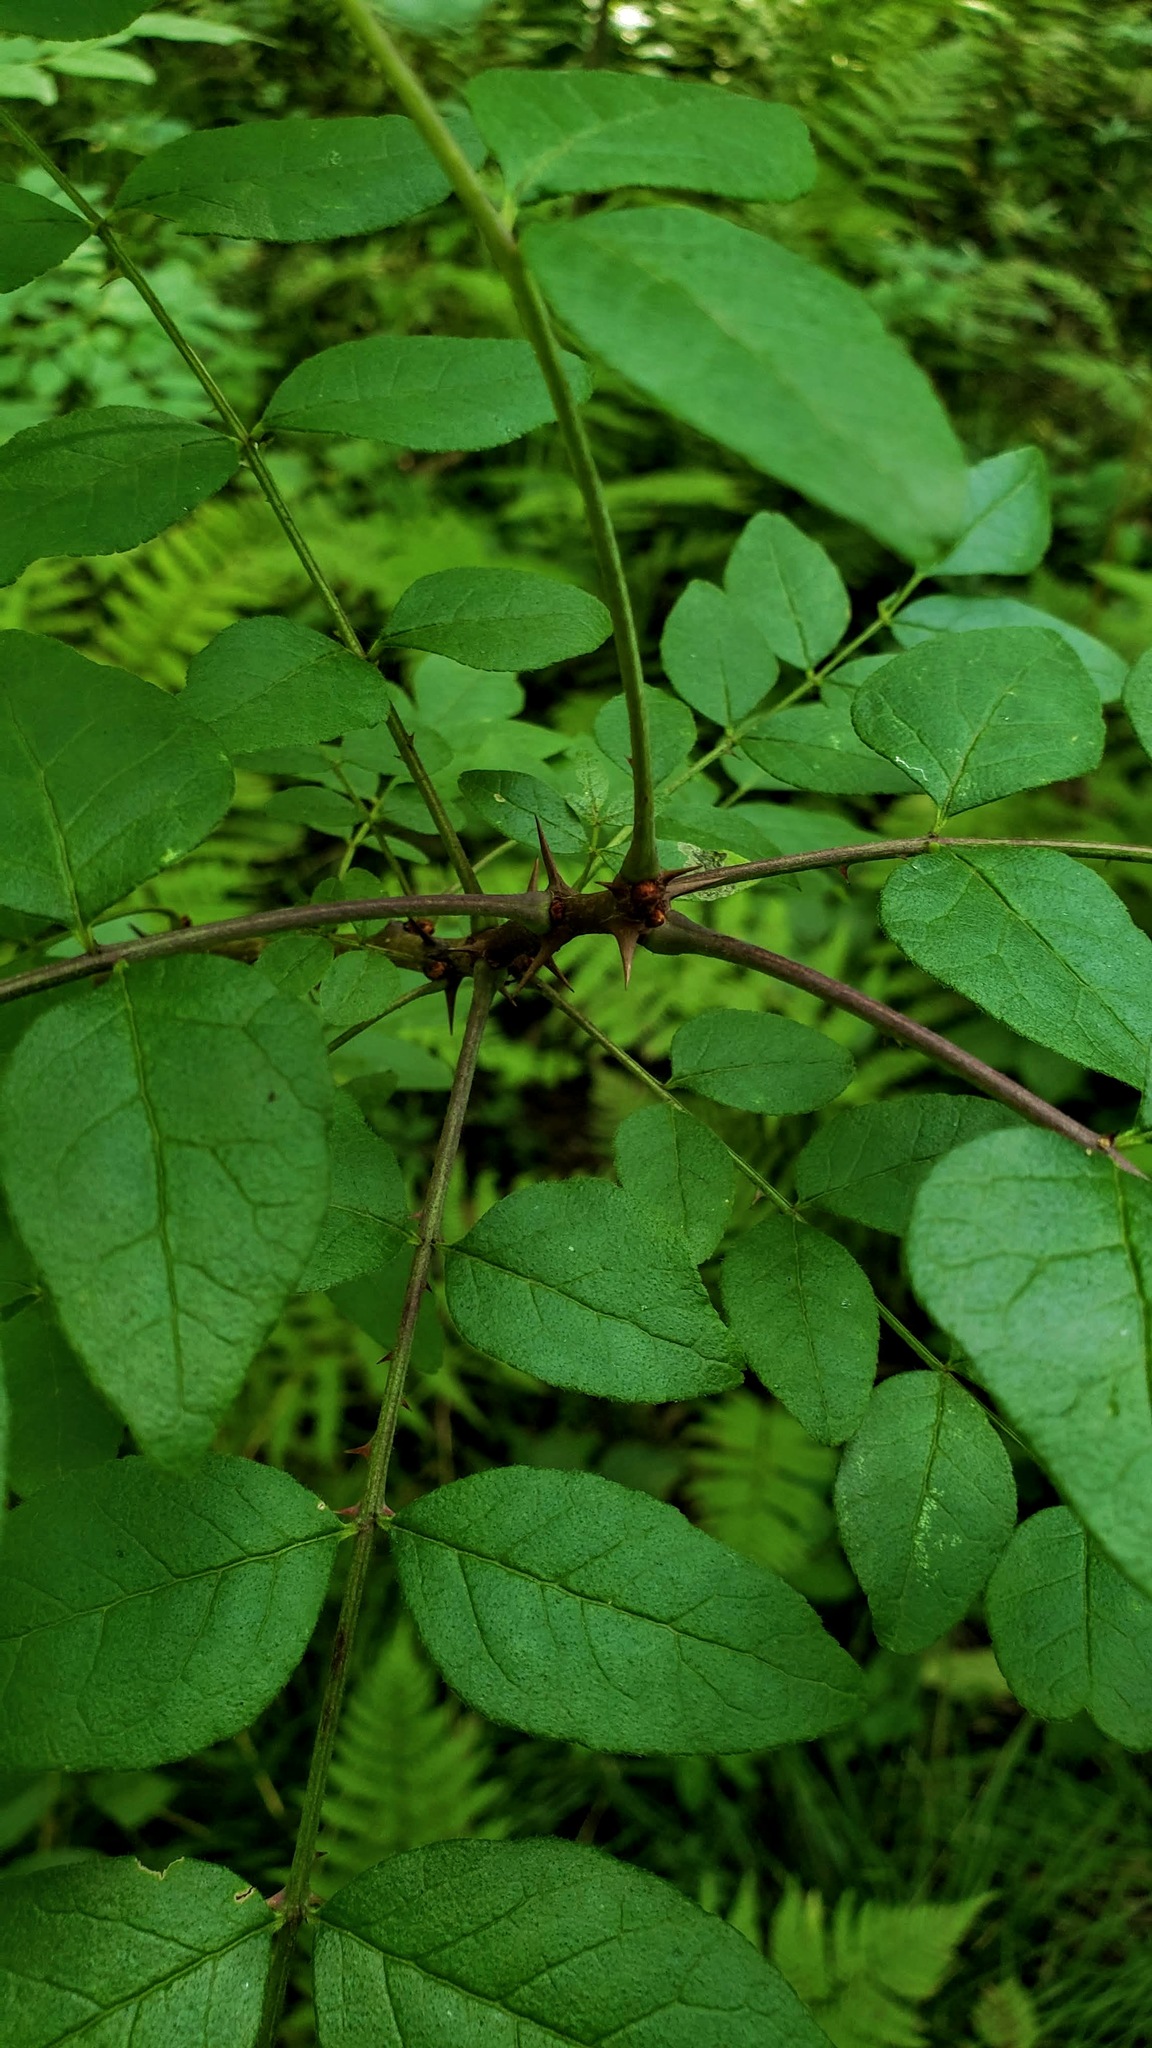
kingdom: Plantae
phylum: Tracheophyta
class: Magnoliopsida
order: Sapindales
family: Rutaceae
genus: Zanthoxylum
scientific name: Zanthoxylum americanum
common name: Northern prickly-ash
